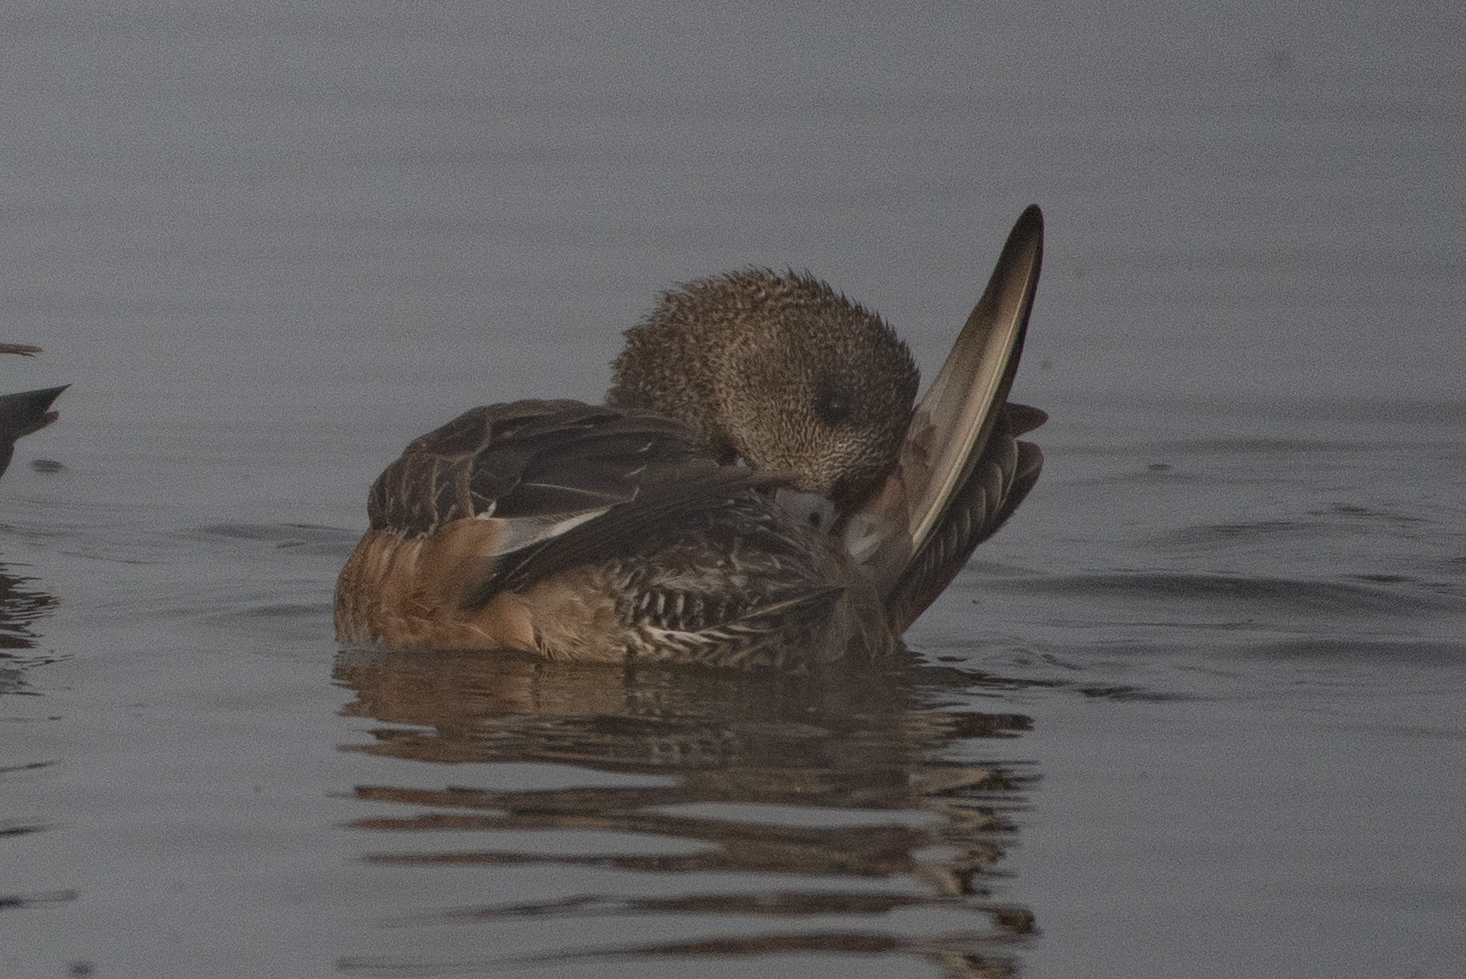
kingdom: Animalia
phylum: Chordata
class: Aves
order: Anseriformes
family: Anatidae
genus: Mareca
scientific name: Mareca americana
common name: American wigeon
